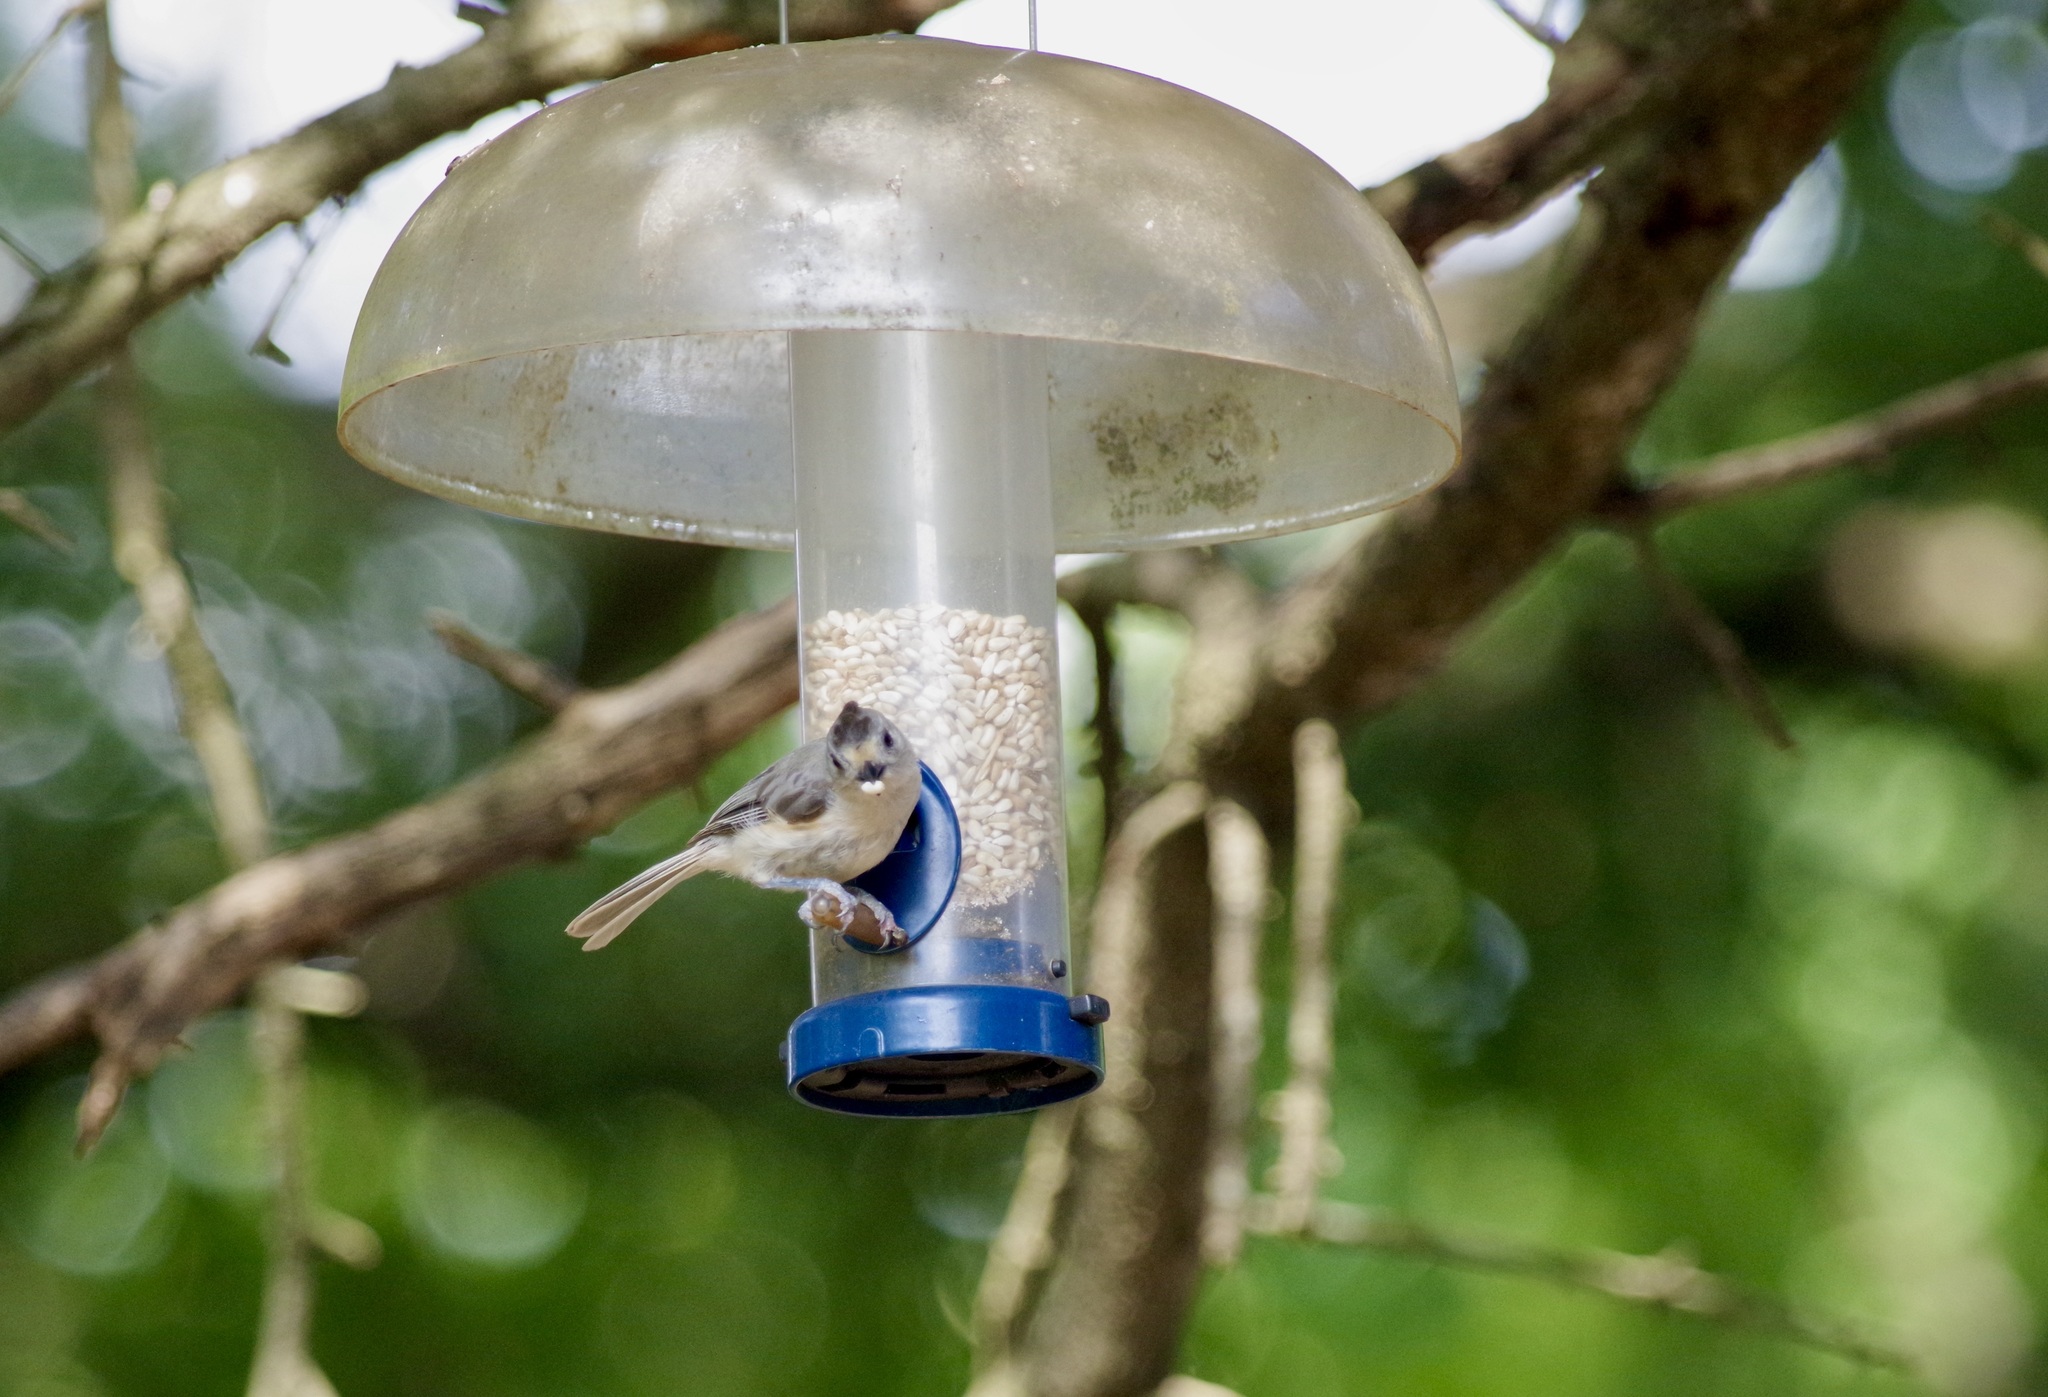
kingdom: Animalia
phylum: Chordata
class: Aves
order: Passeriformes
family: Paridae
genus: Baeolophus
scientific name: Baeolophus
